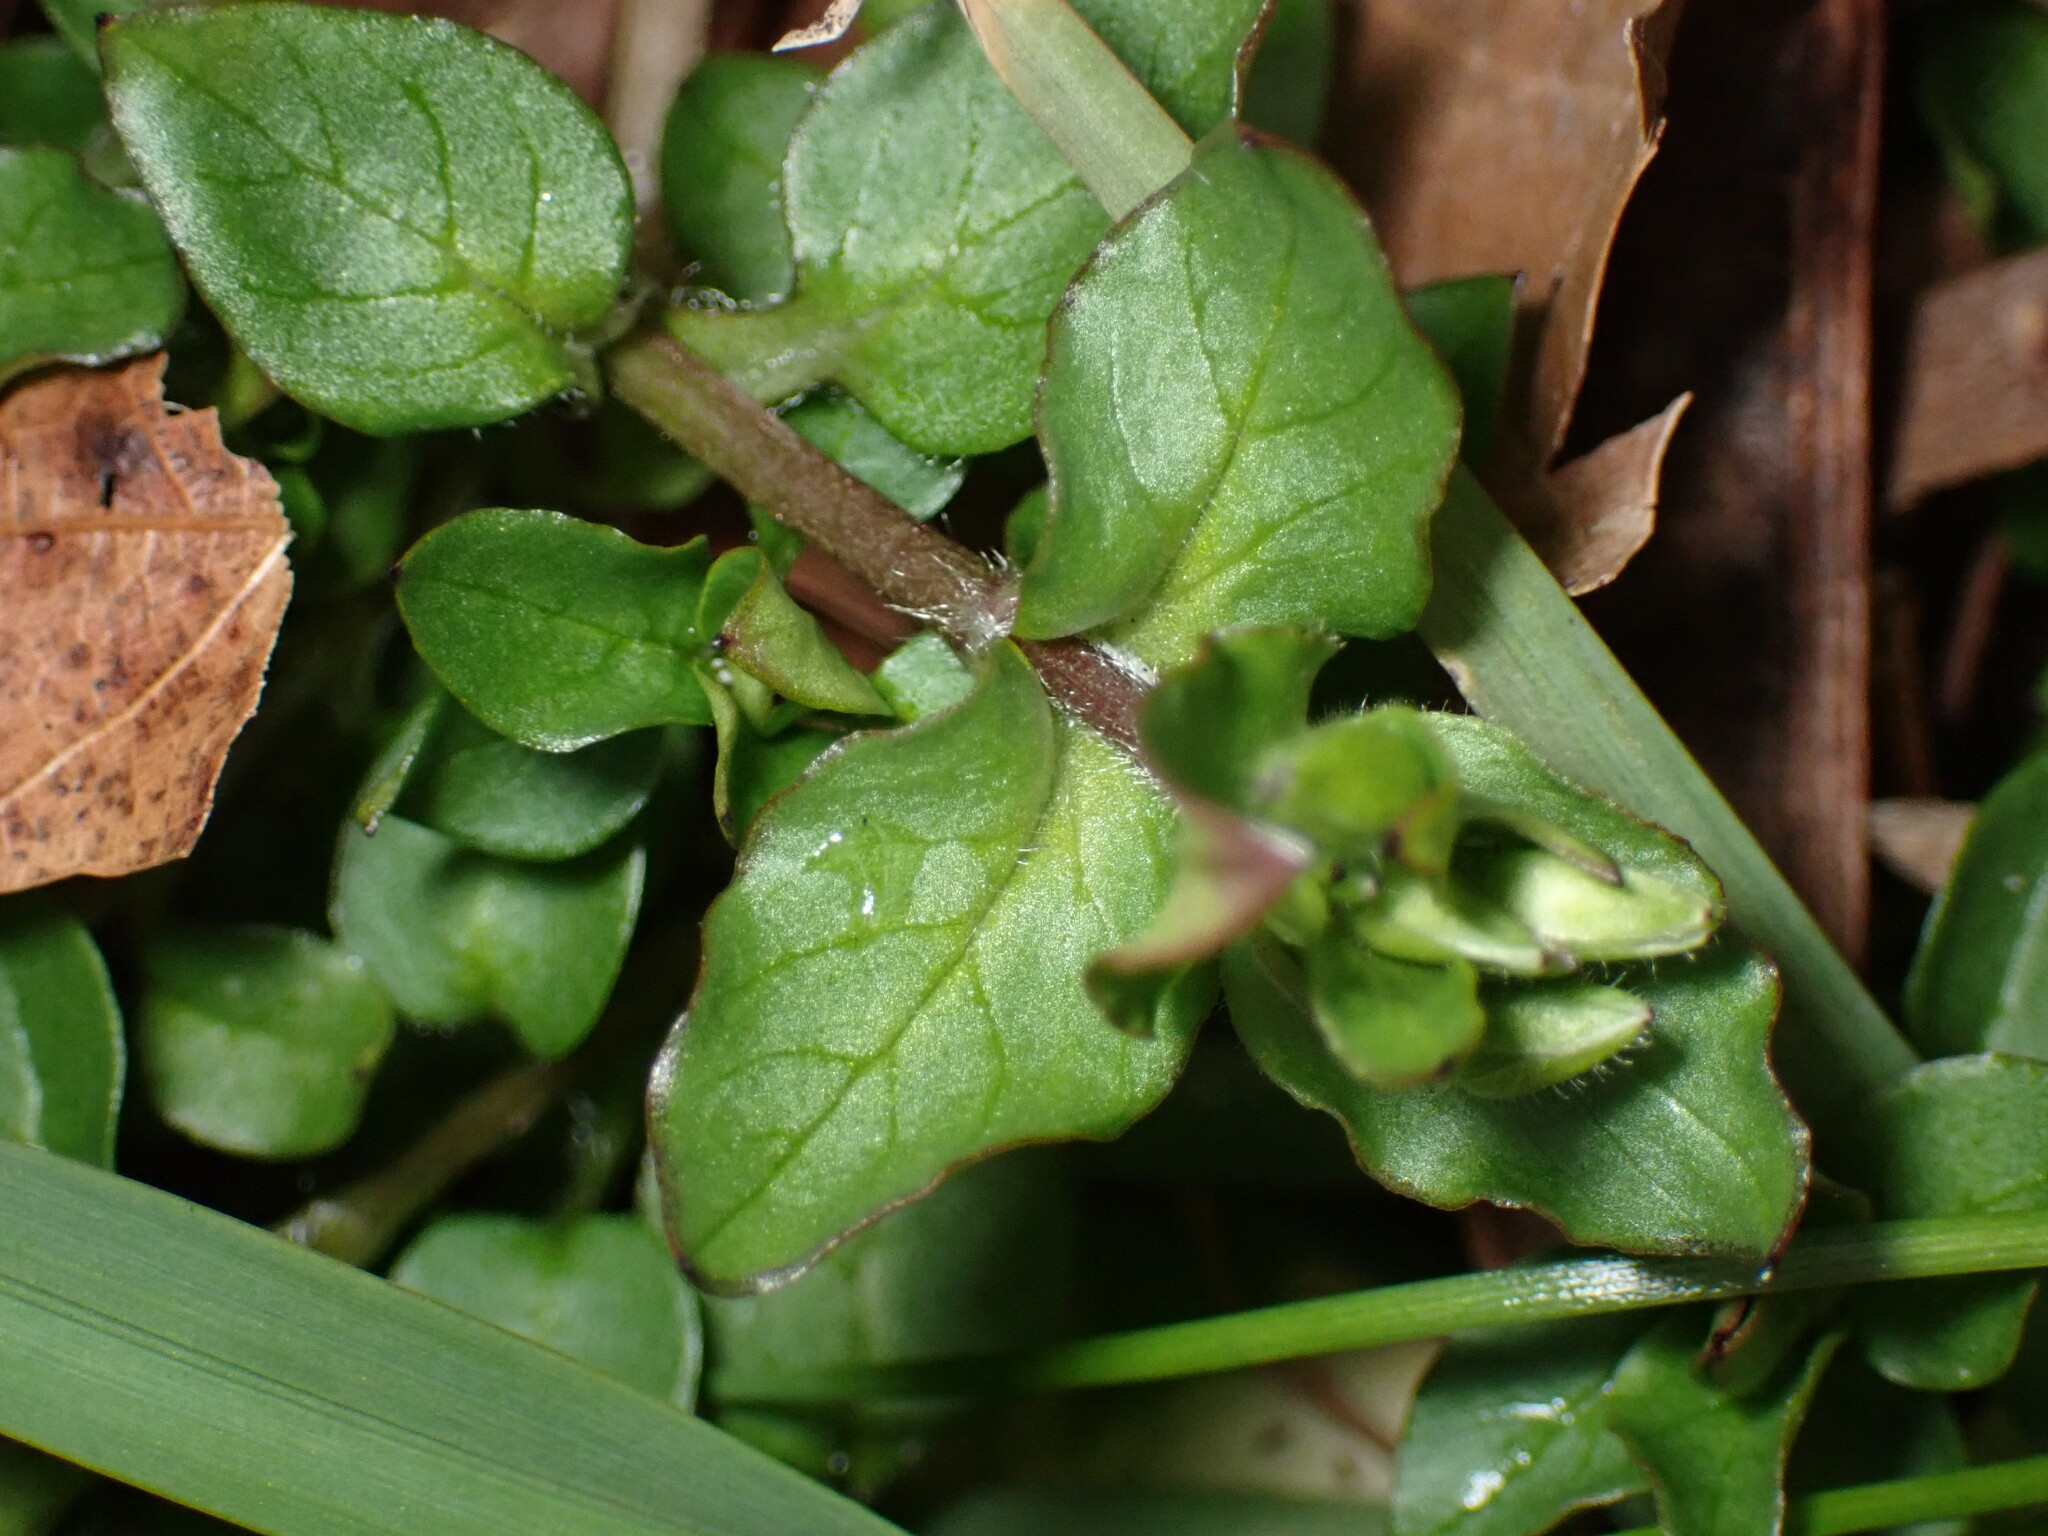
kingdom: Plantae
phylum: Tracheophyta
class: Magnoliopsida
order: Caryophyllales
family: Caryophyllaceae
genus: Stellaria
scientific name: Stellaria media
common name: Common chickweed
